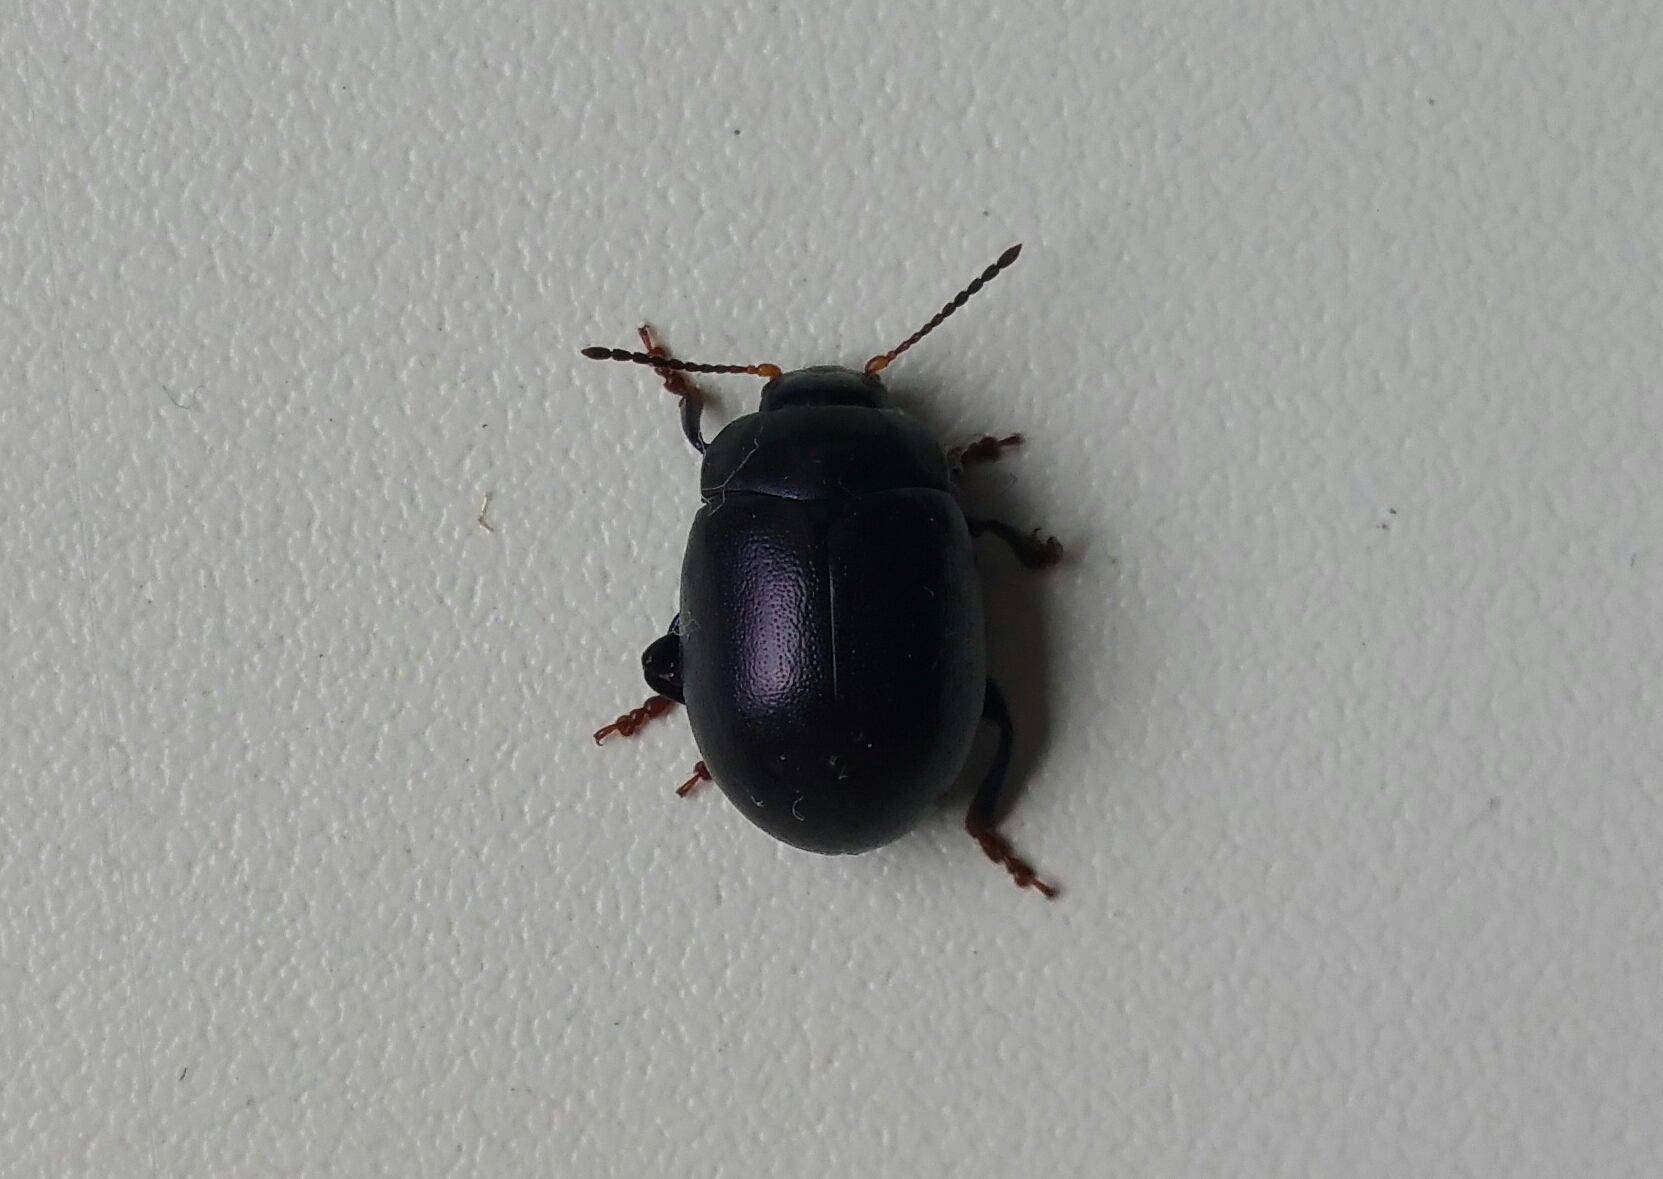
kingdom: Animalia
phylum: Arthropoda
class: Insecta
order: Coleoptera
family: Chrysomelidae
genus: Chrysolina
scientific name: Chrysolina sturmi
